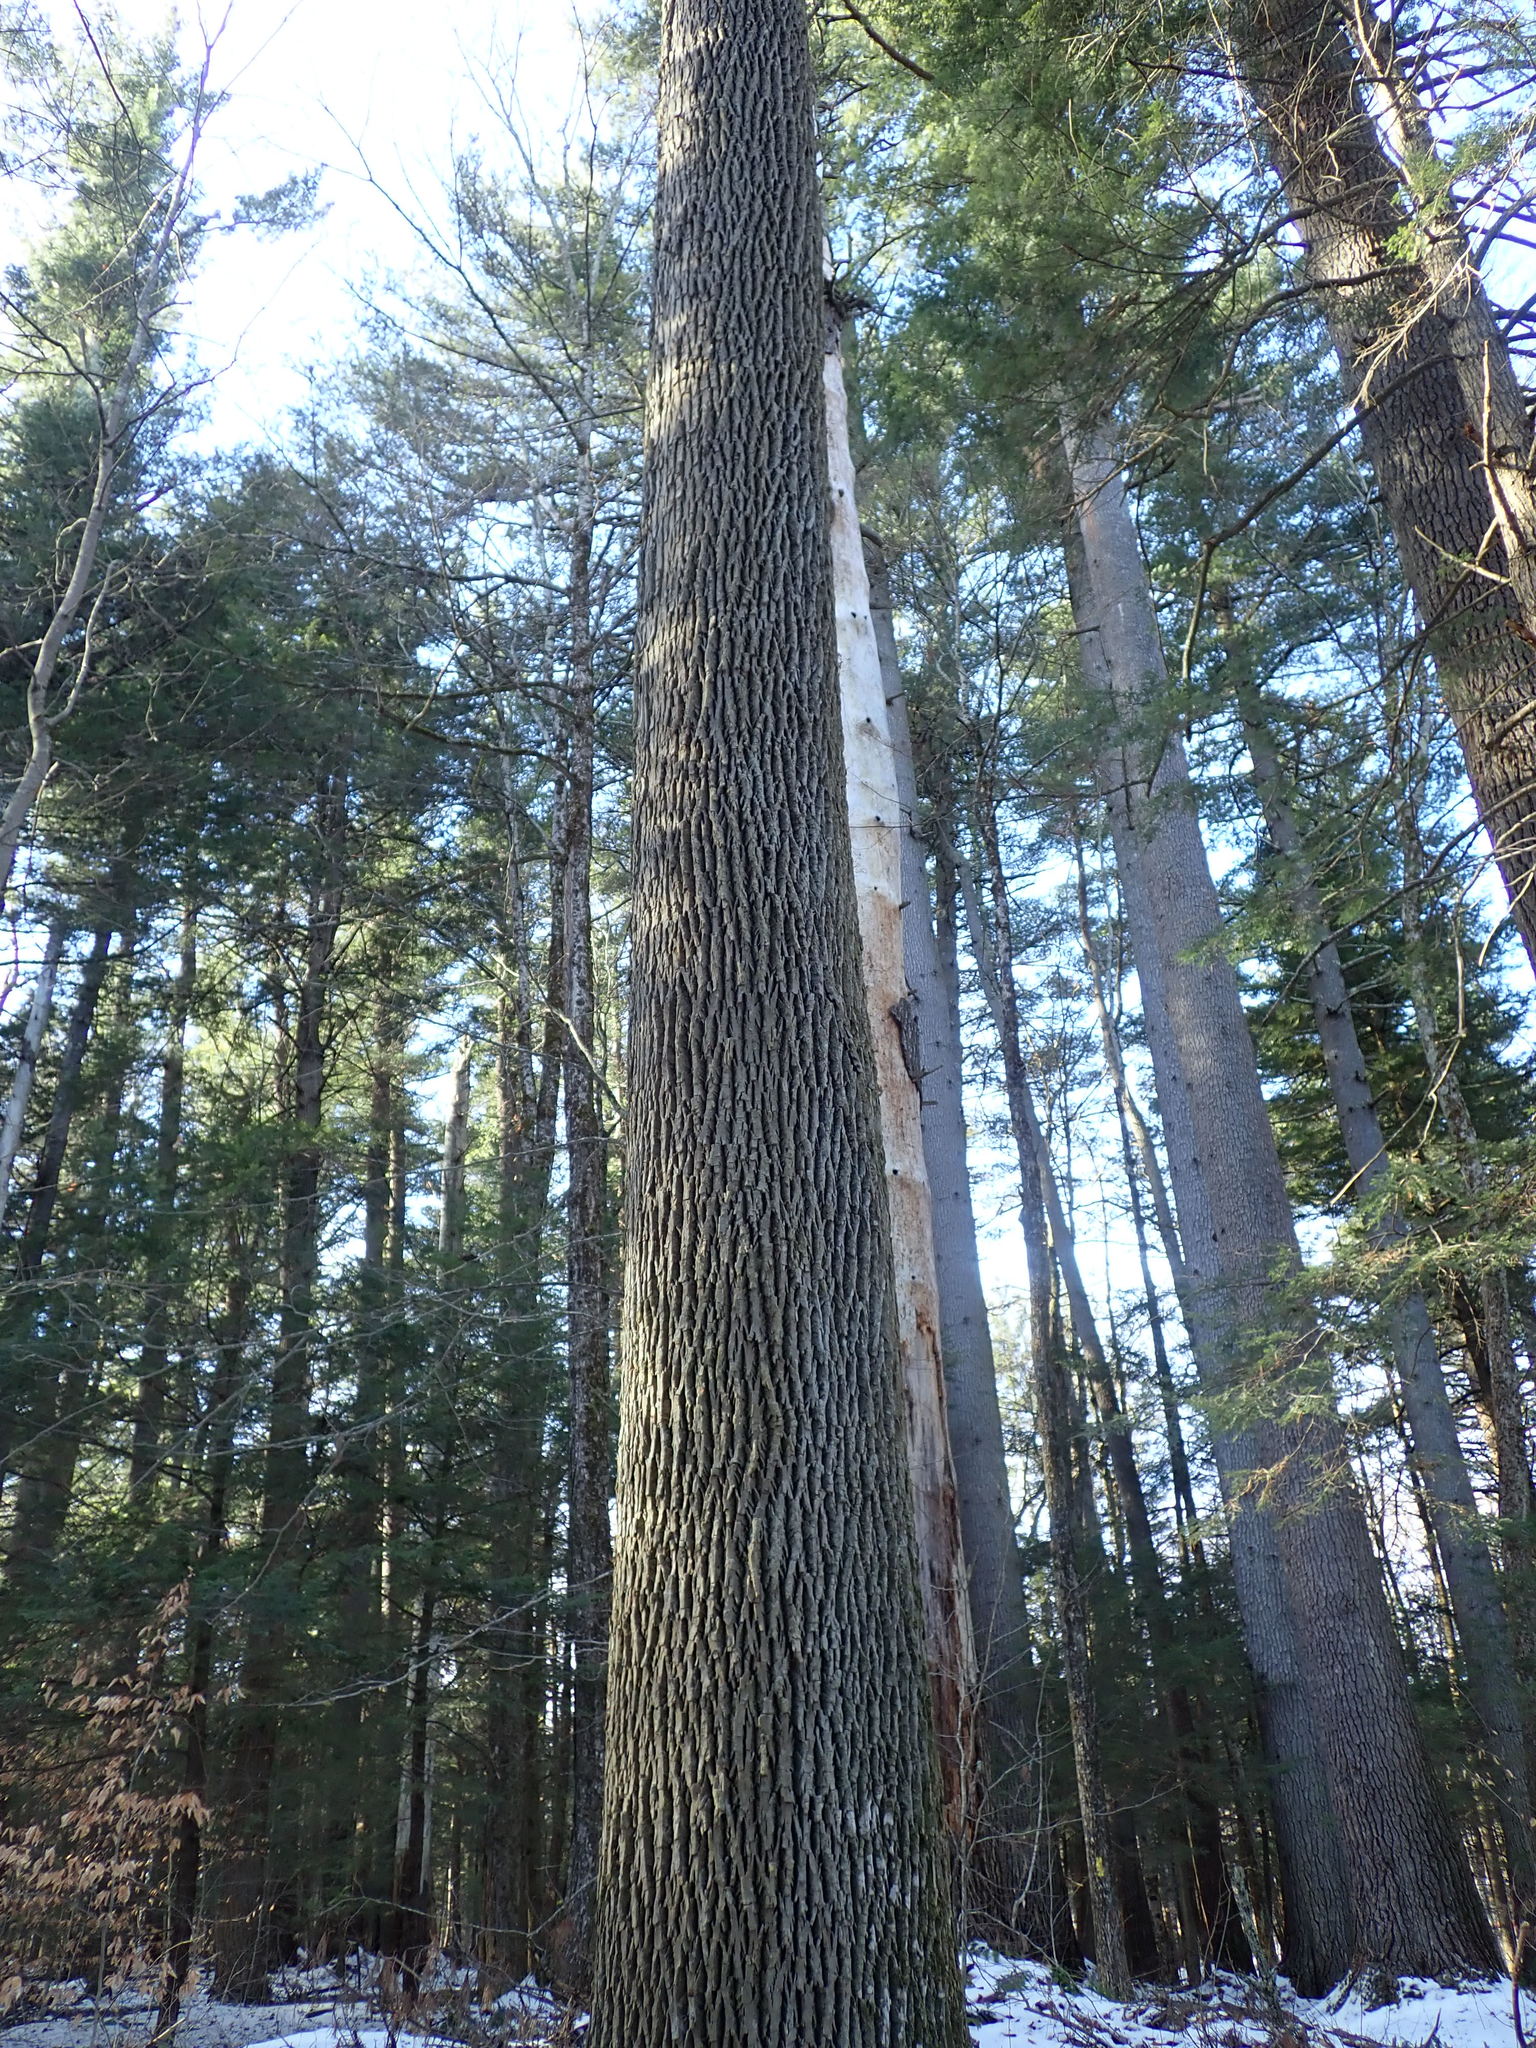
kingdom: Plantae
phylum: Tracheophyta
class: Magnoliopsida
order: Lamiales
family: Oleaceae
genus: Fraxinus
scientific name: Fraxinus americana
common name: White ash
